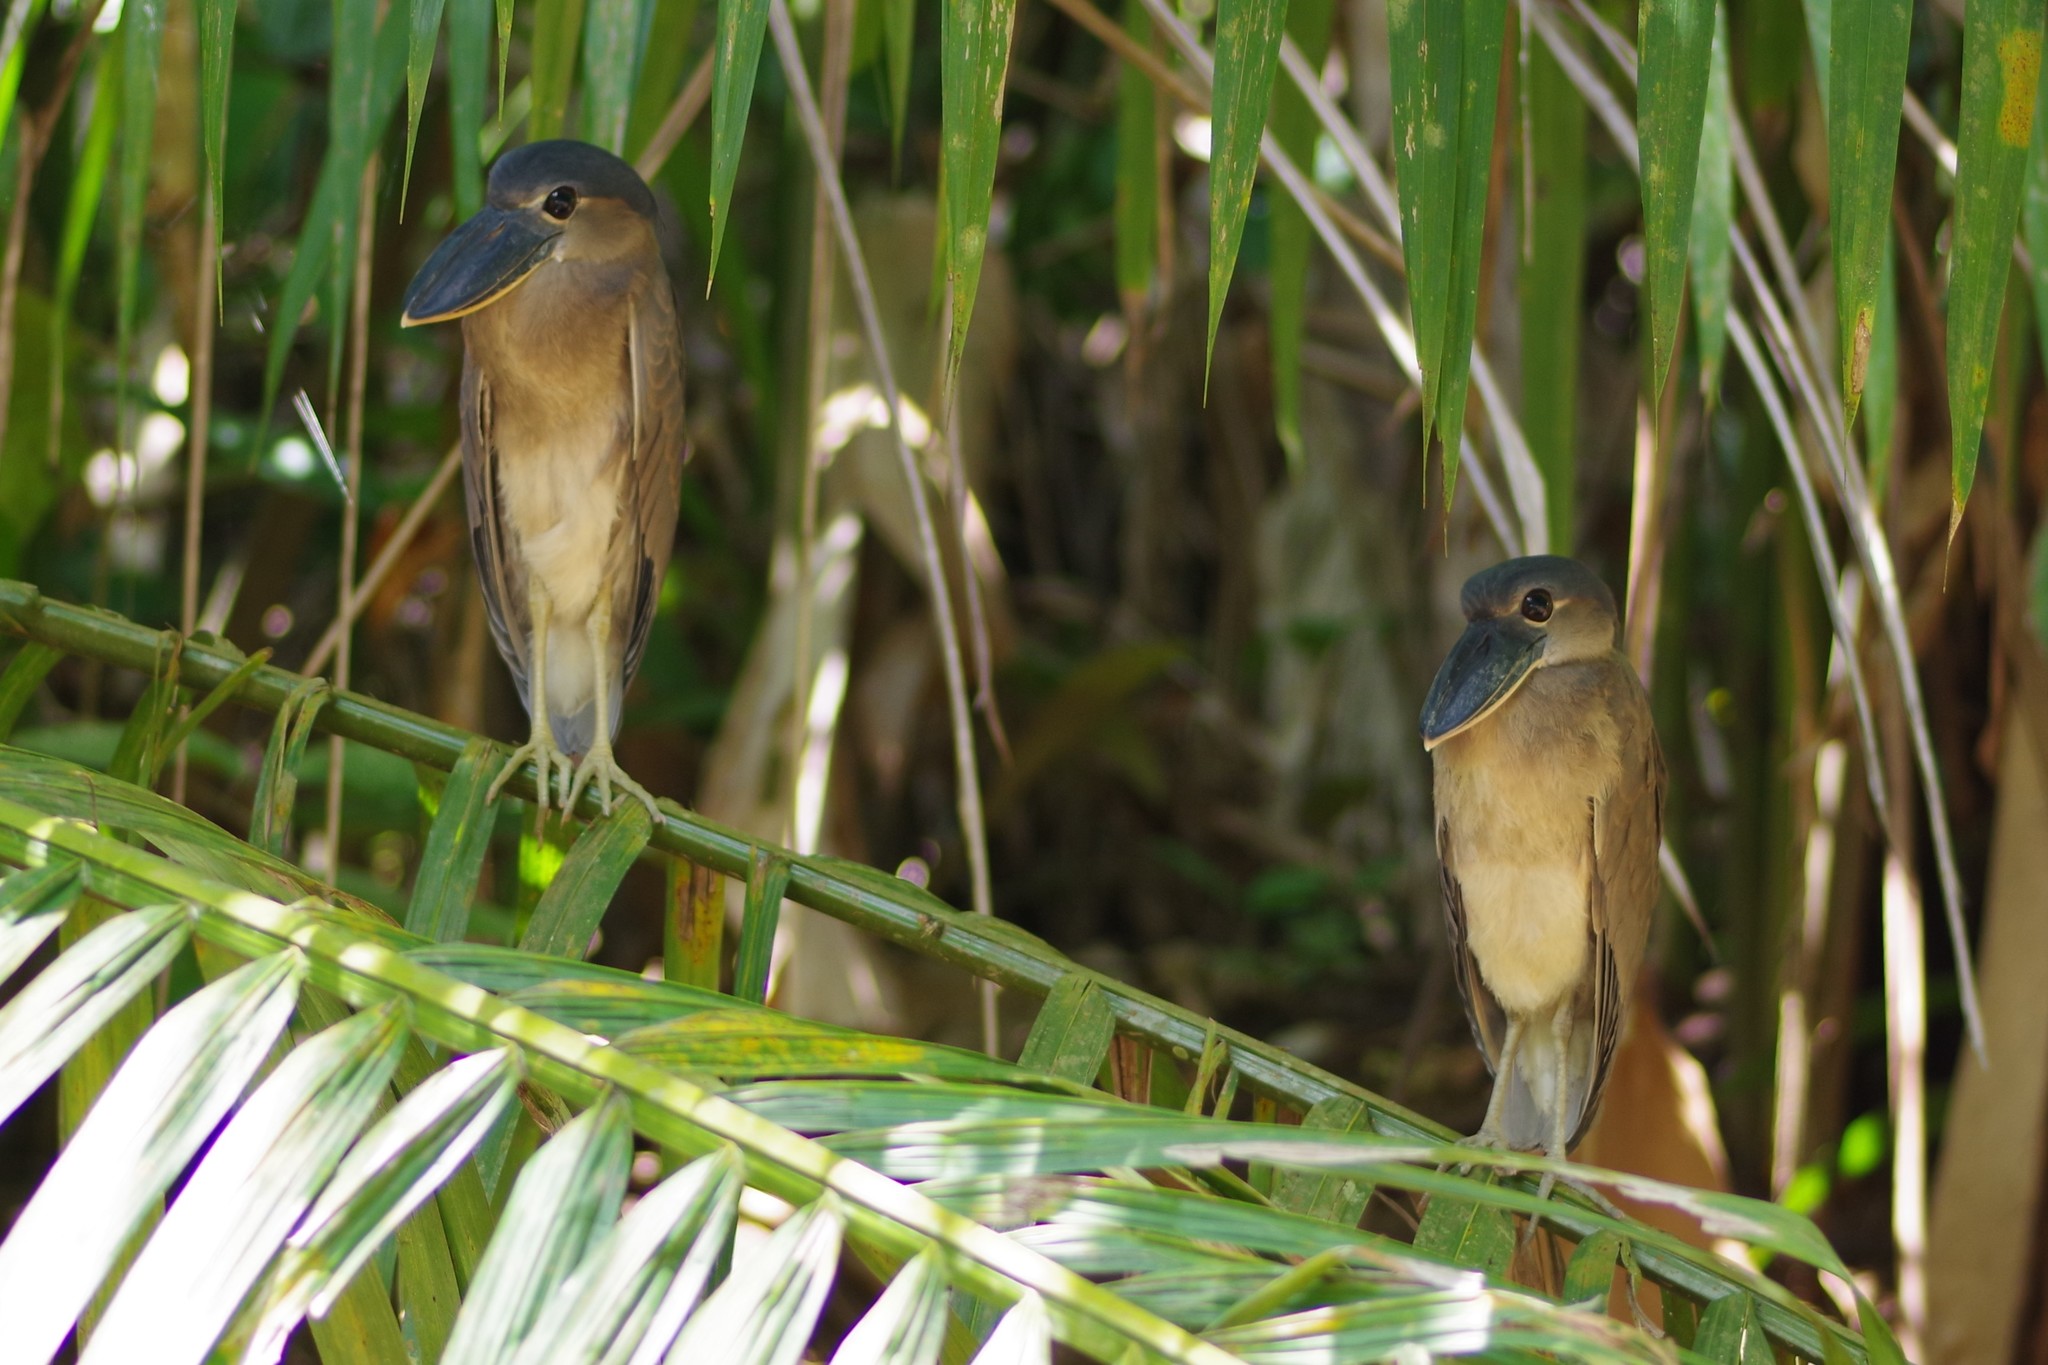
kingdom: Animalia
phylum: Chordata
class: Aves
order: Pelecaniformes
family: Ardeidae
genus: Cochlearius
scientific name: Cochlearius cochlearius
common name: Boat-billed heron
